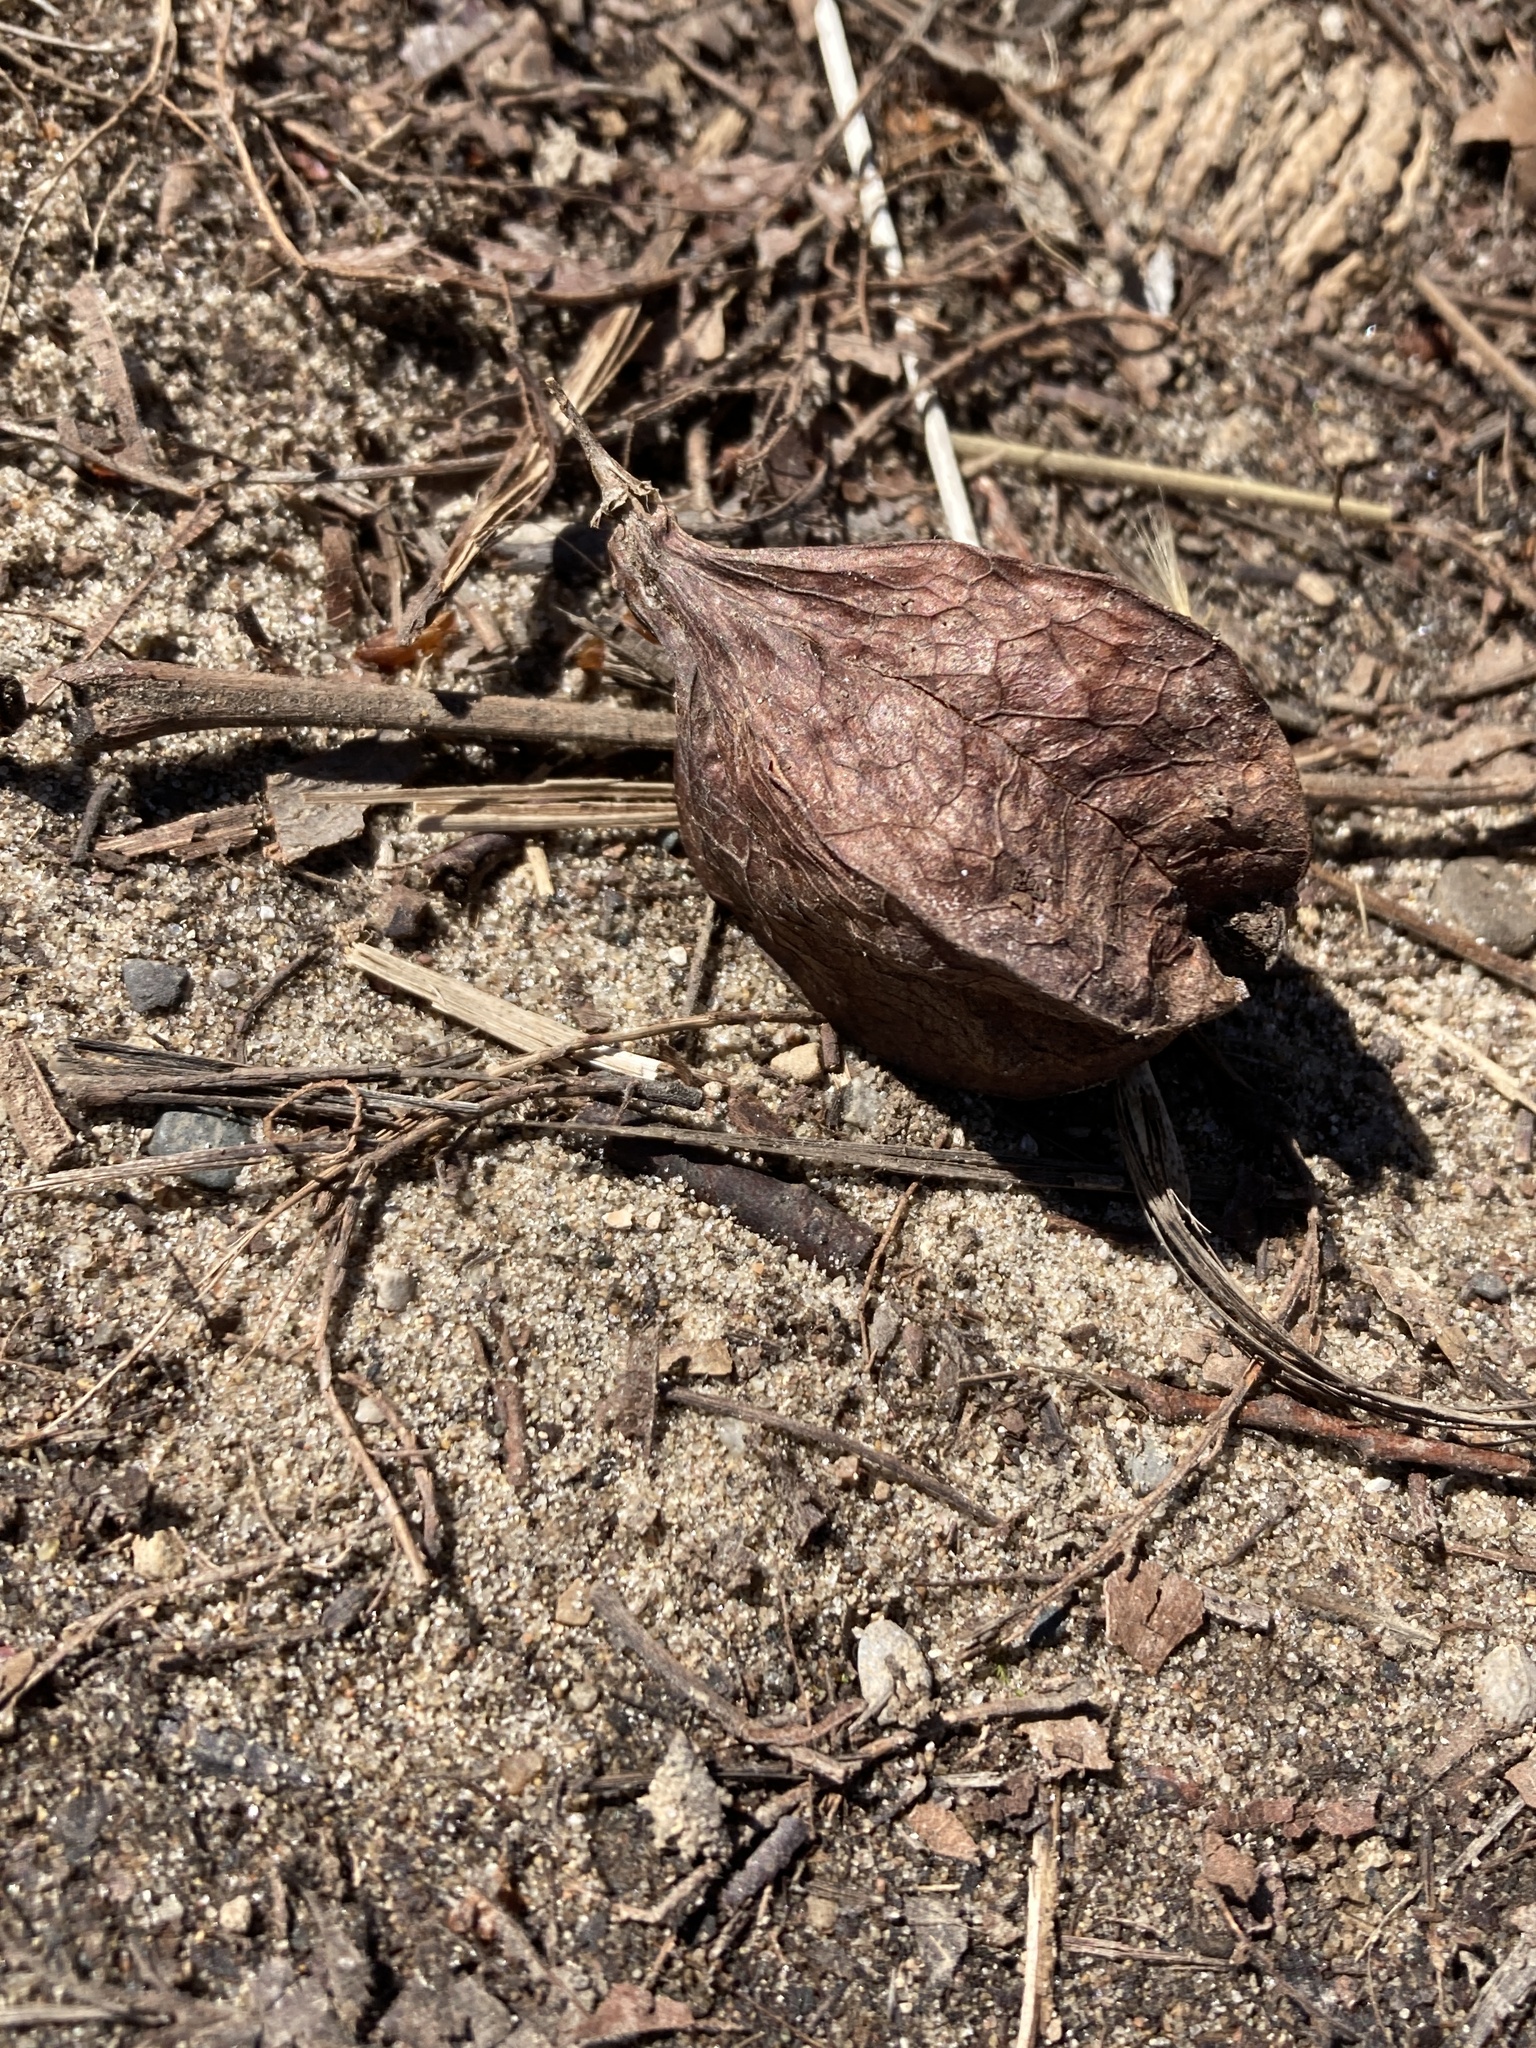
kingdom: Plantae
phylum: Tracheophyta
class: Magnoliopsida
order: Crossosomatales
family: Staphyleaceae
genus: Staphylea
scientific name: Staphylea trifolia
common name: American bladdernut
